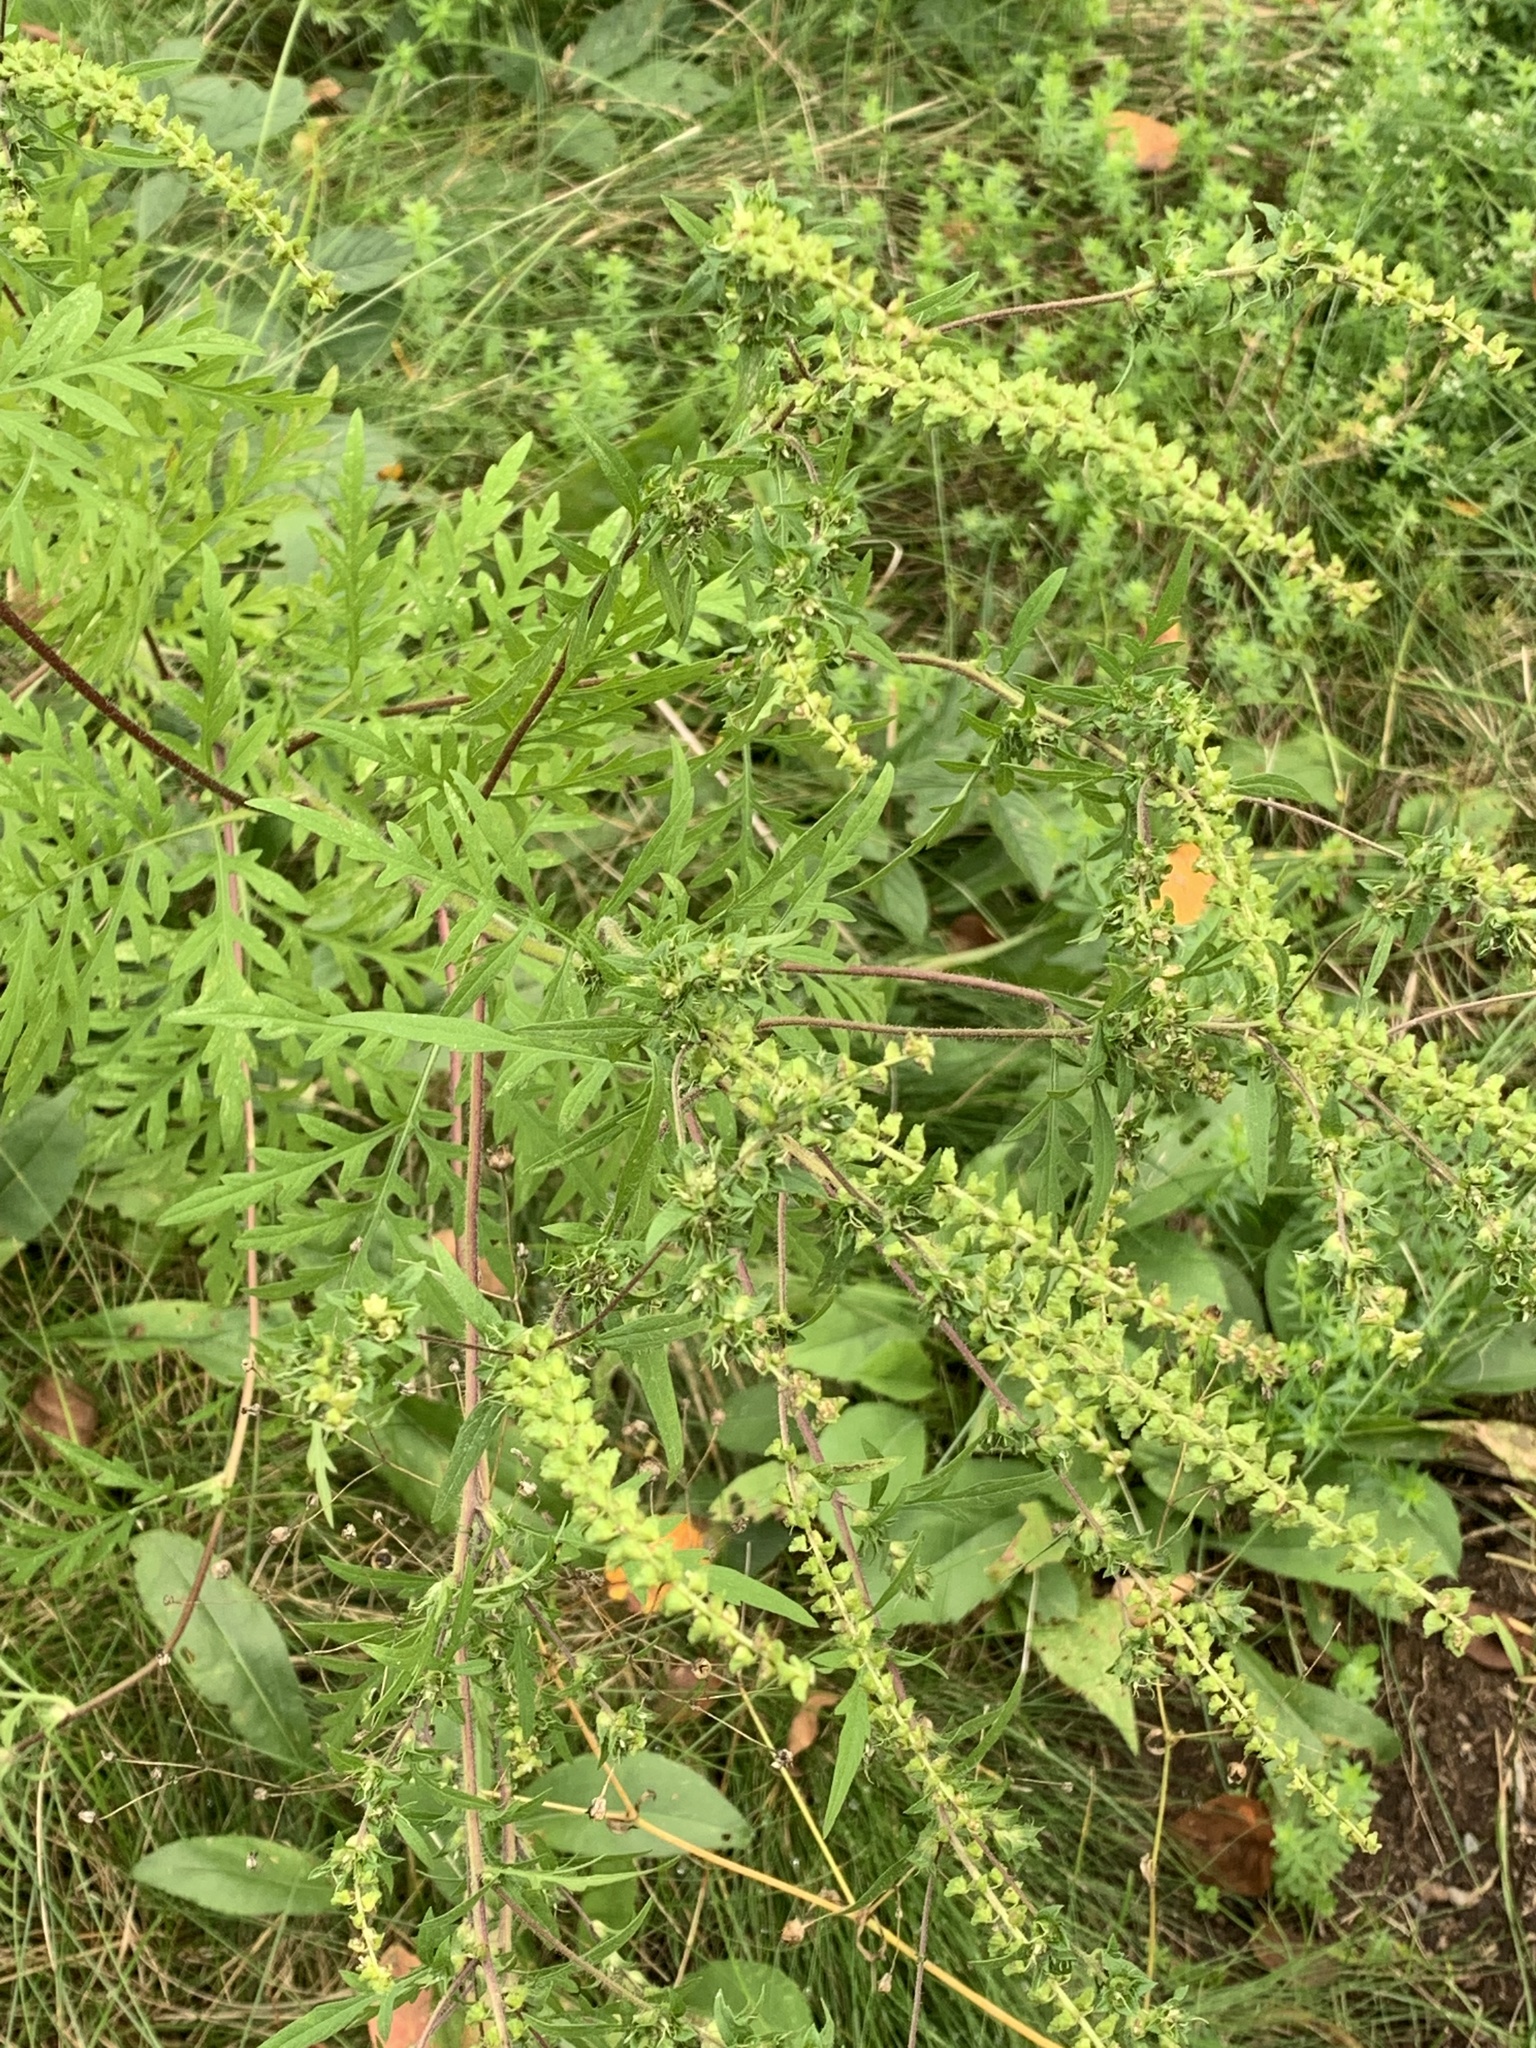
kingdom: Plantae
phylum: Tracheophyta
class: Magnoliopsida
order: Asterales
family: Asteraceae
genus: Ambrosia
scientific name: Ambrosia artemisiifolia
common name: Annual ragweed
